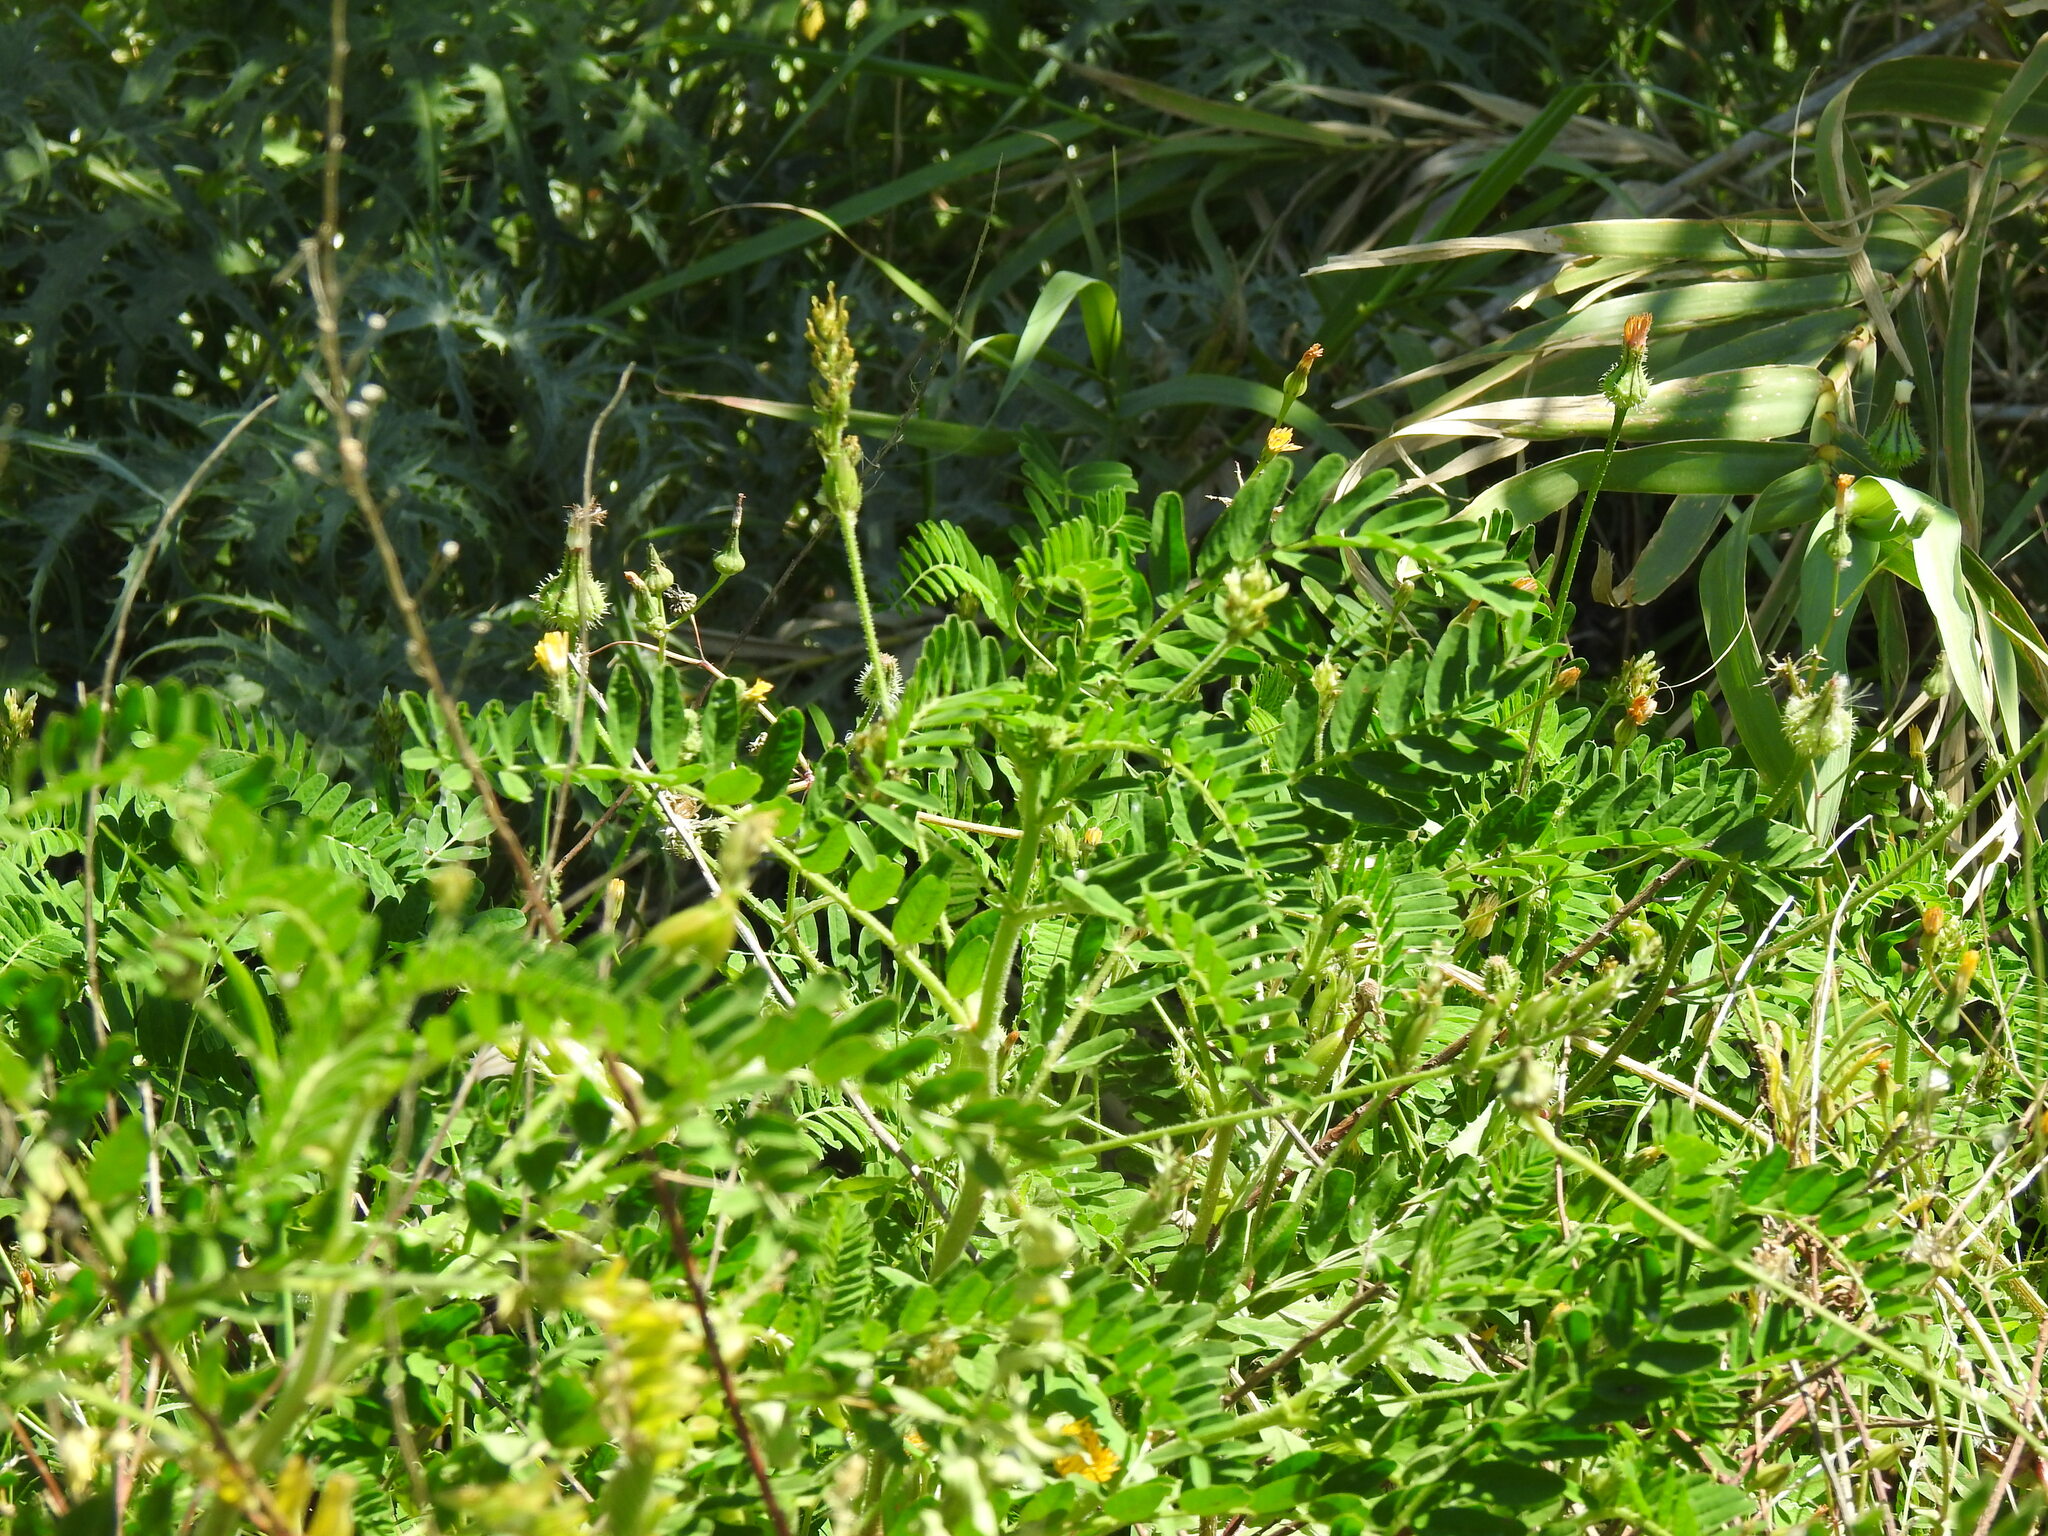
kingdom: Plantae
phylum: Tracheophyta
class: Magnoliopsida
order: Fabales
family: Fabaceae
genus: Astragalus
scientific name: Astragalus boeticus
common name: Milk-vetch
